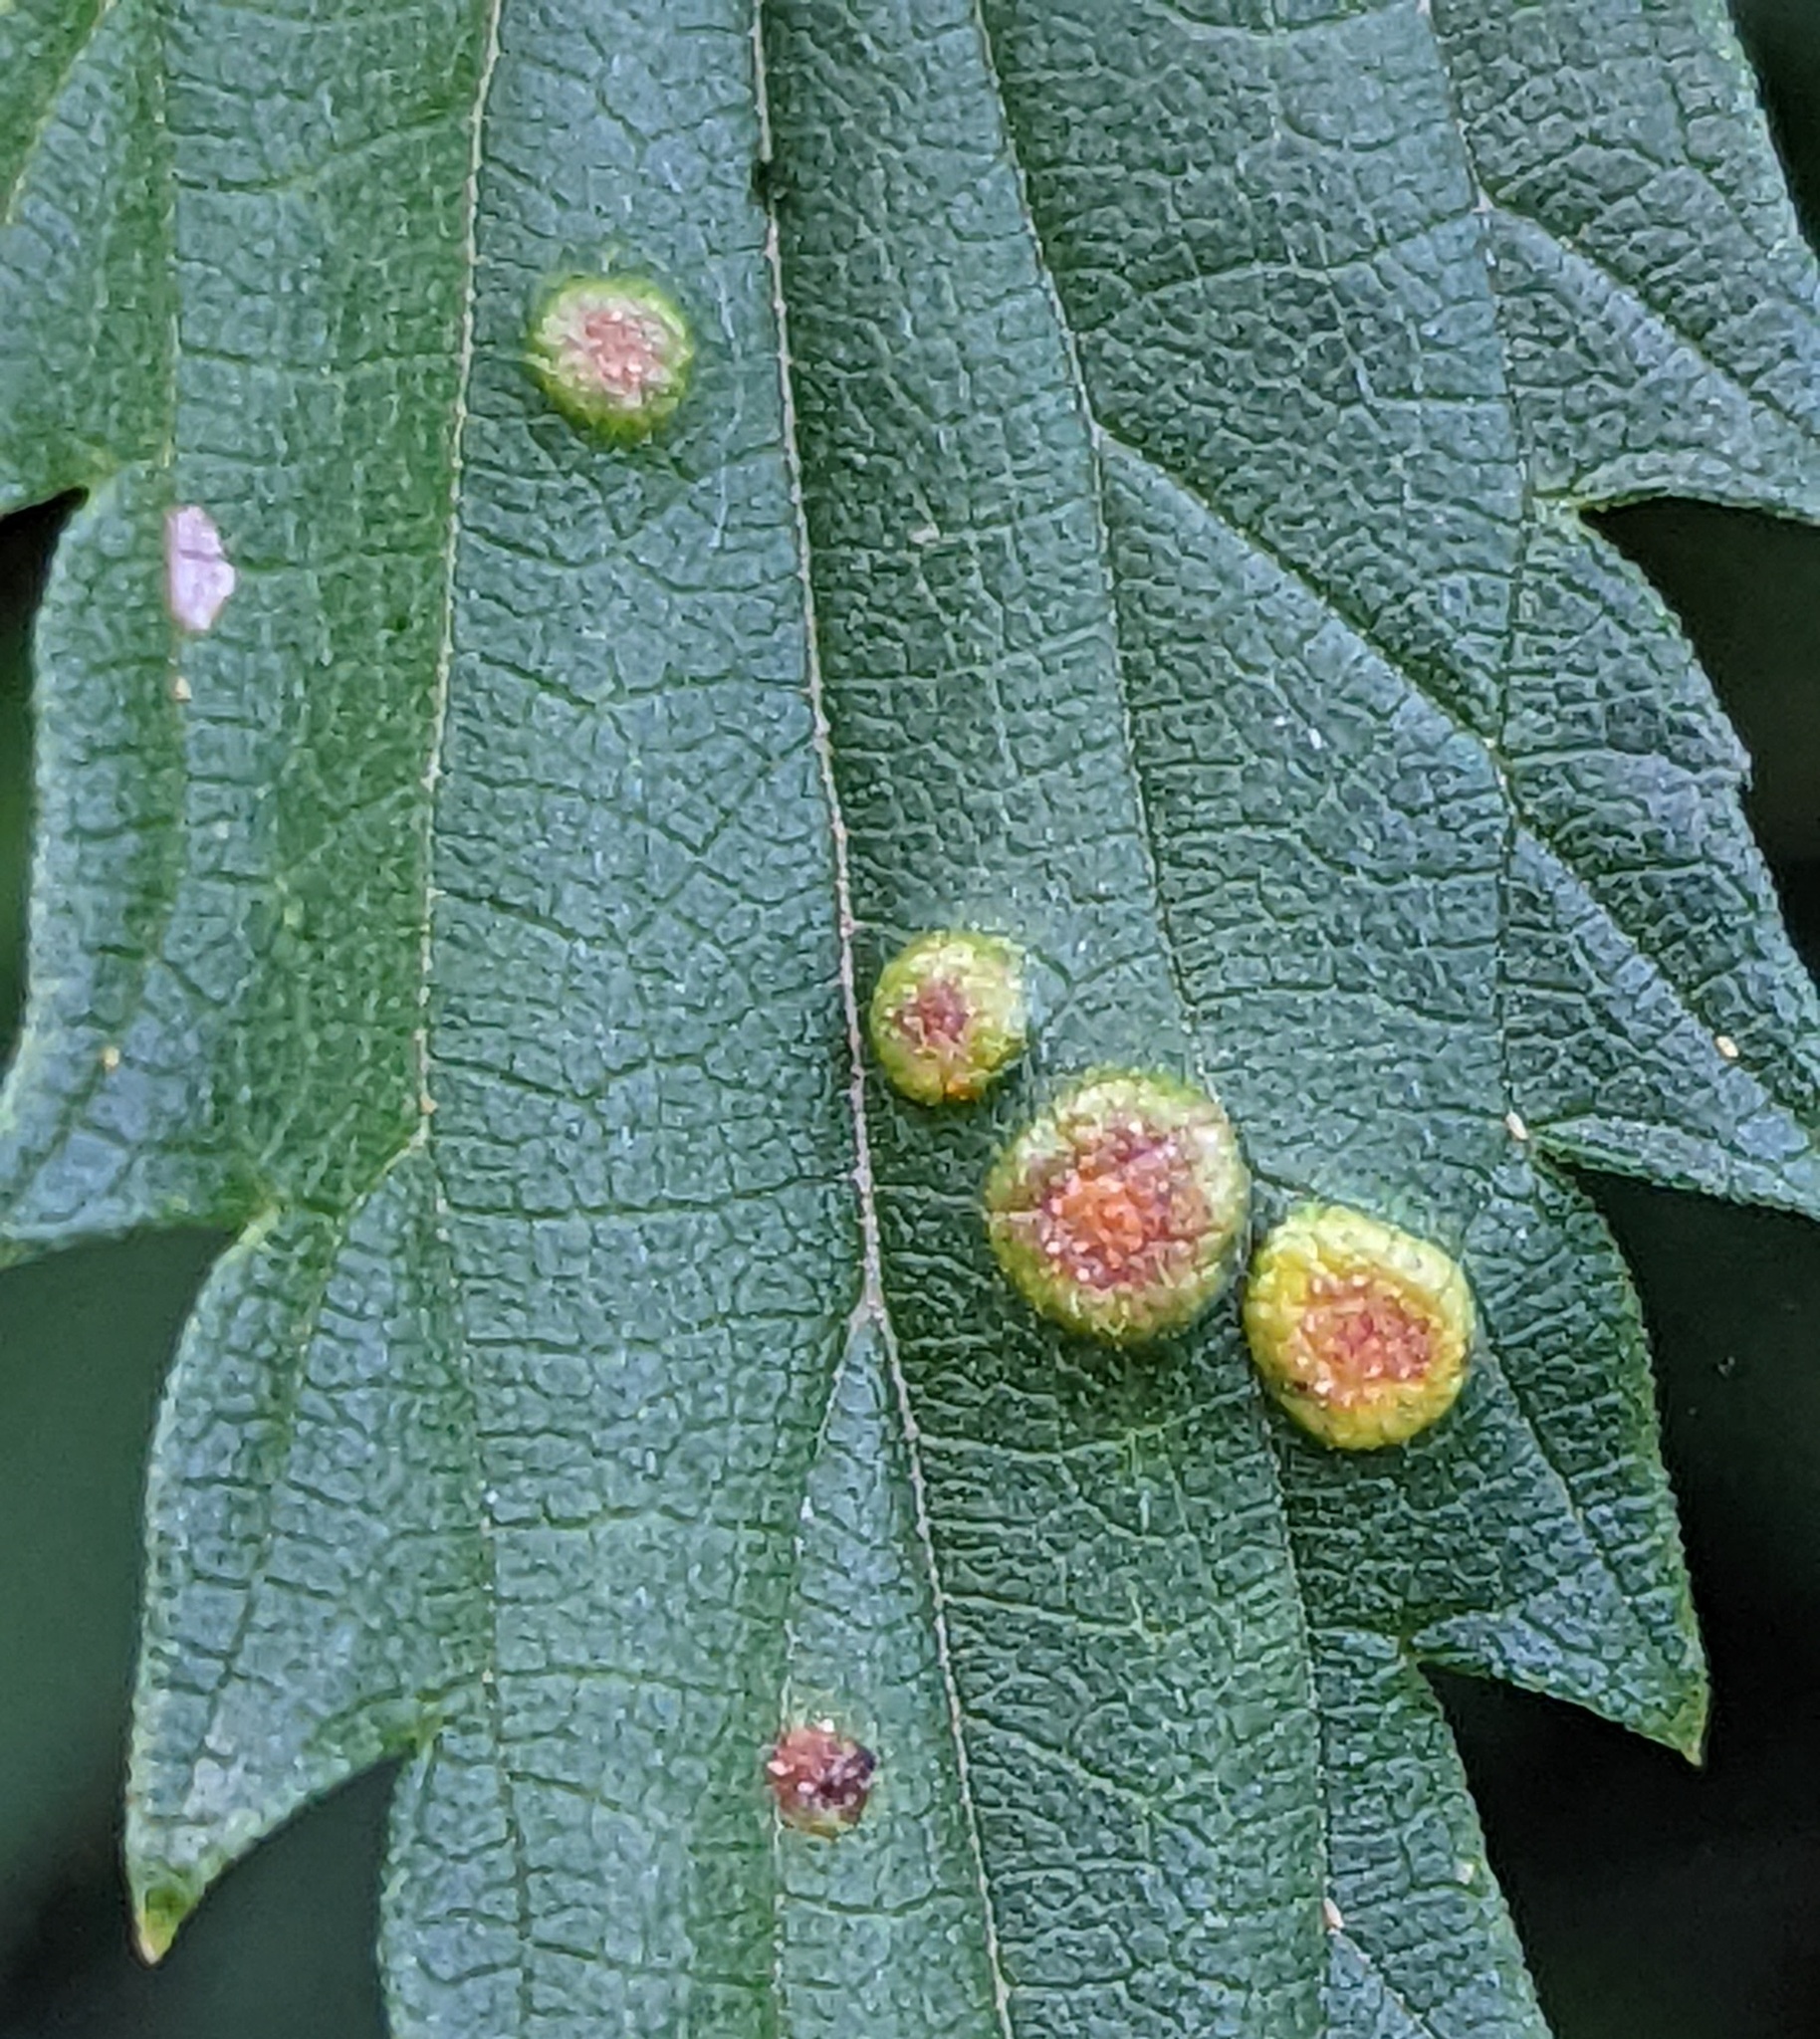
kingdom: Fungi
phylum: Basidiomycota
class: Pucciniomycetes
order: Pucciniales
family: Pucciniaceae
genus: Puccinia
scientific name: Puccinia urticata
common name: Nettle clustercup rust fungus
